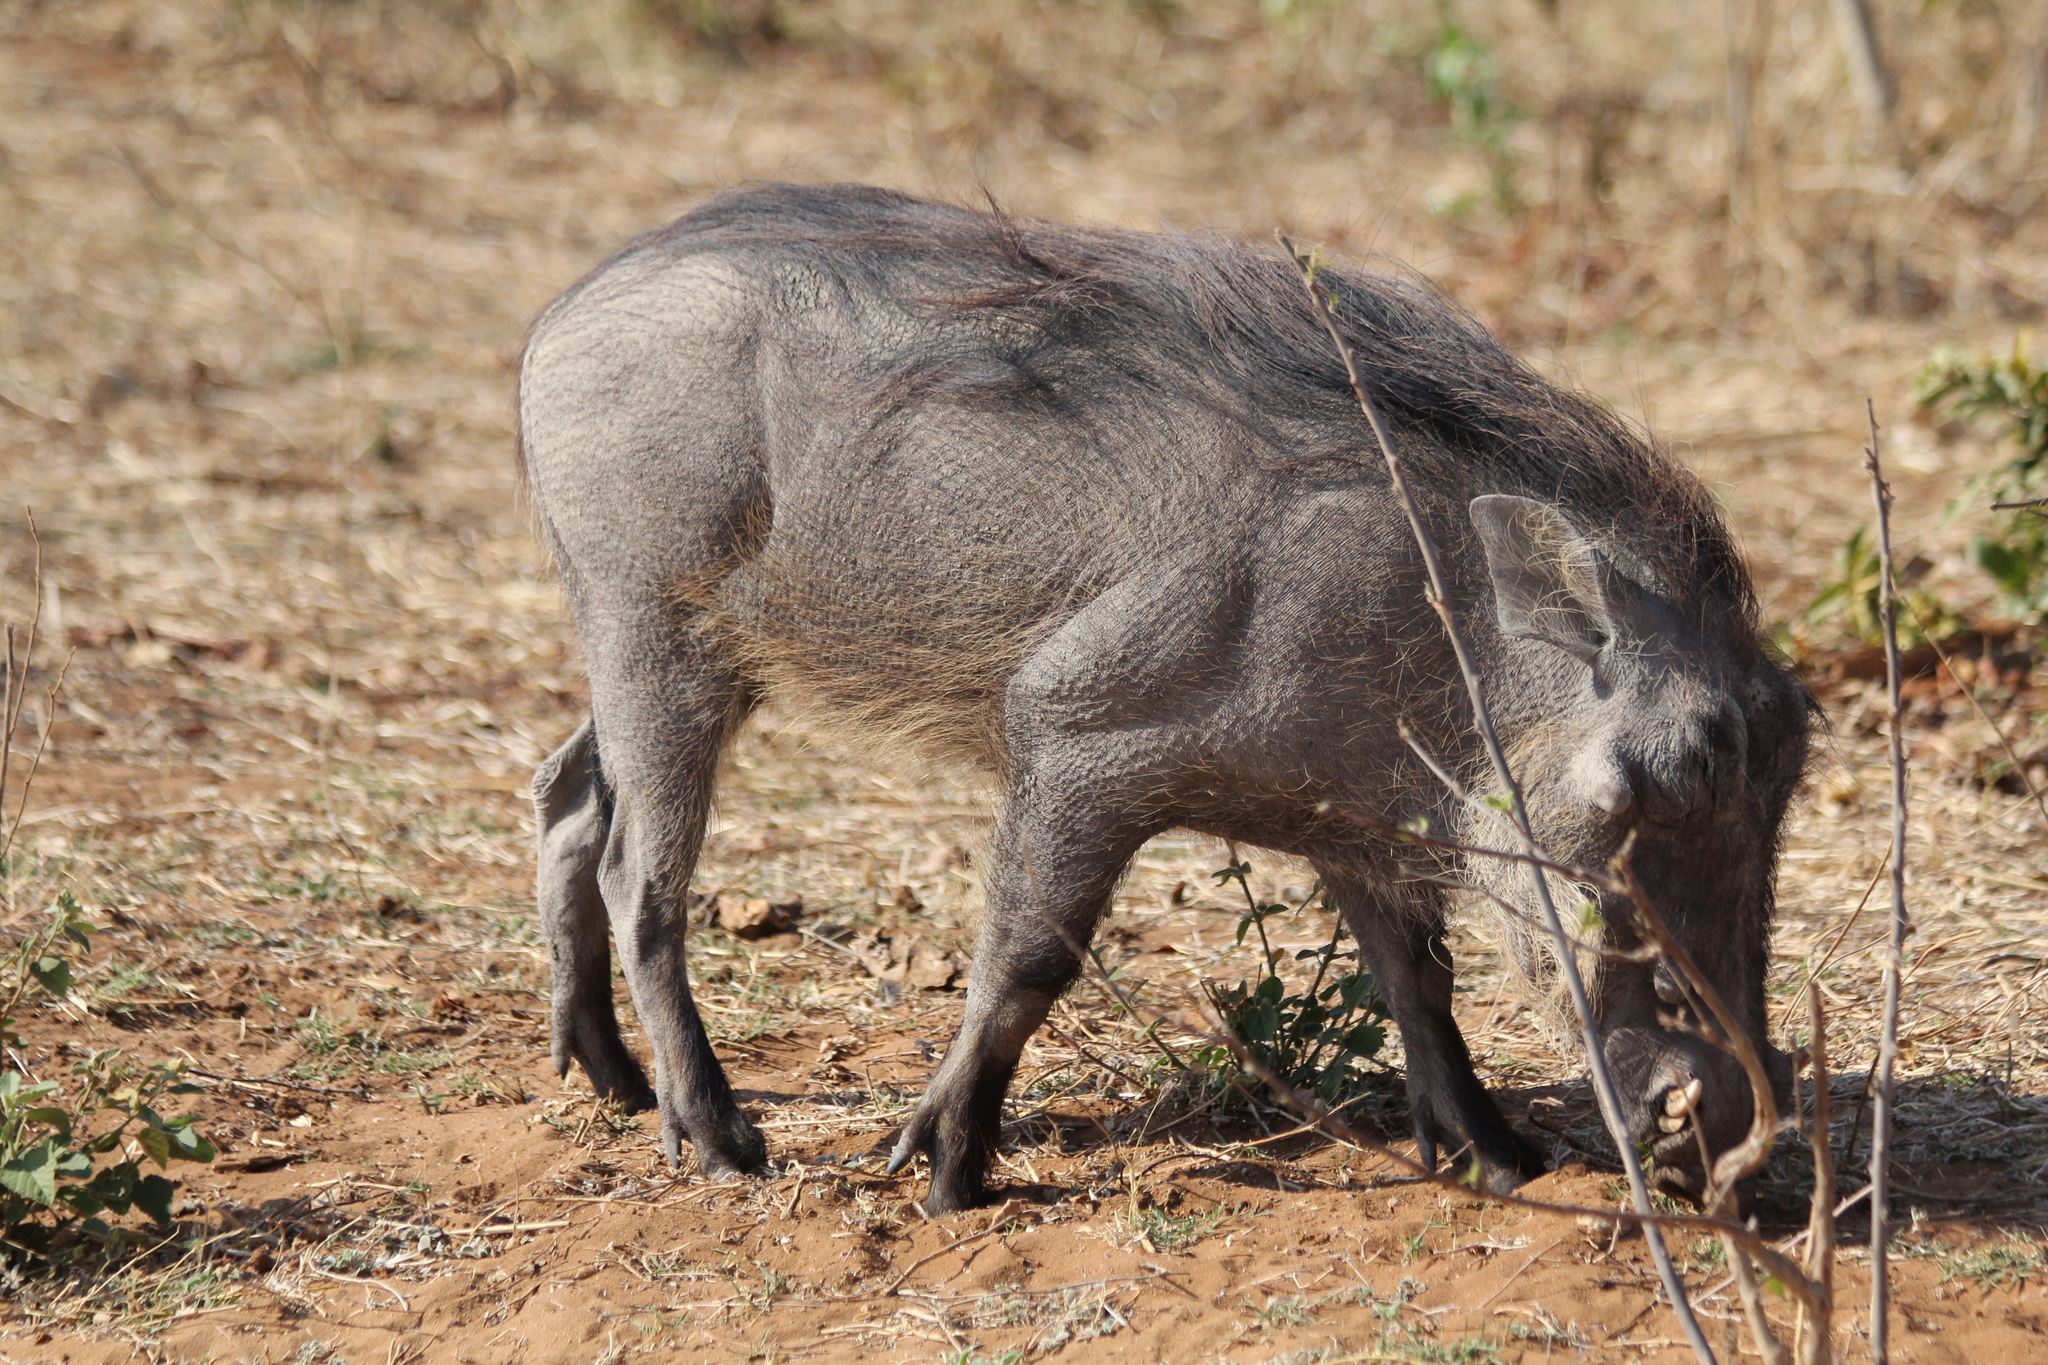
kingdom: Animalia
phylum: Chordata
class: Mammalia
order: Artiodactyla
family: Suidae
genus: Phacochoerus
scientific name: Phacochoerus africanus
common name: Common warthog
